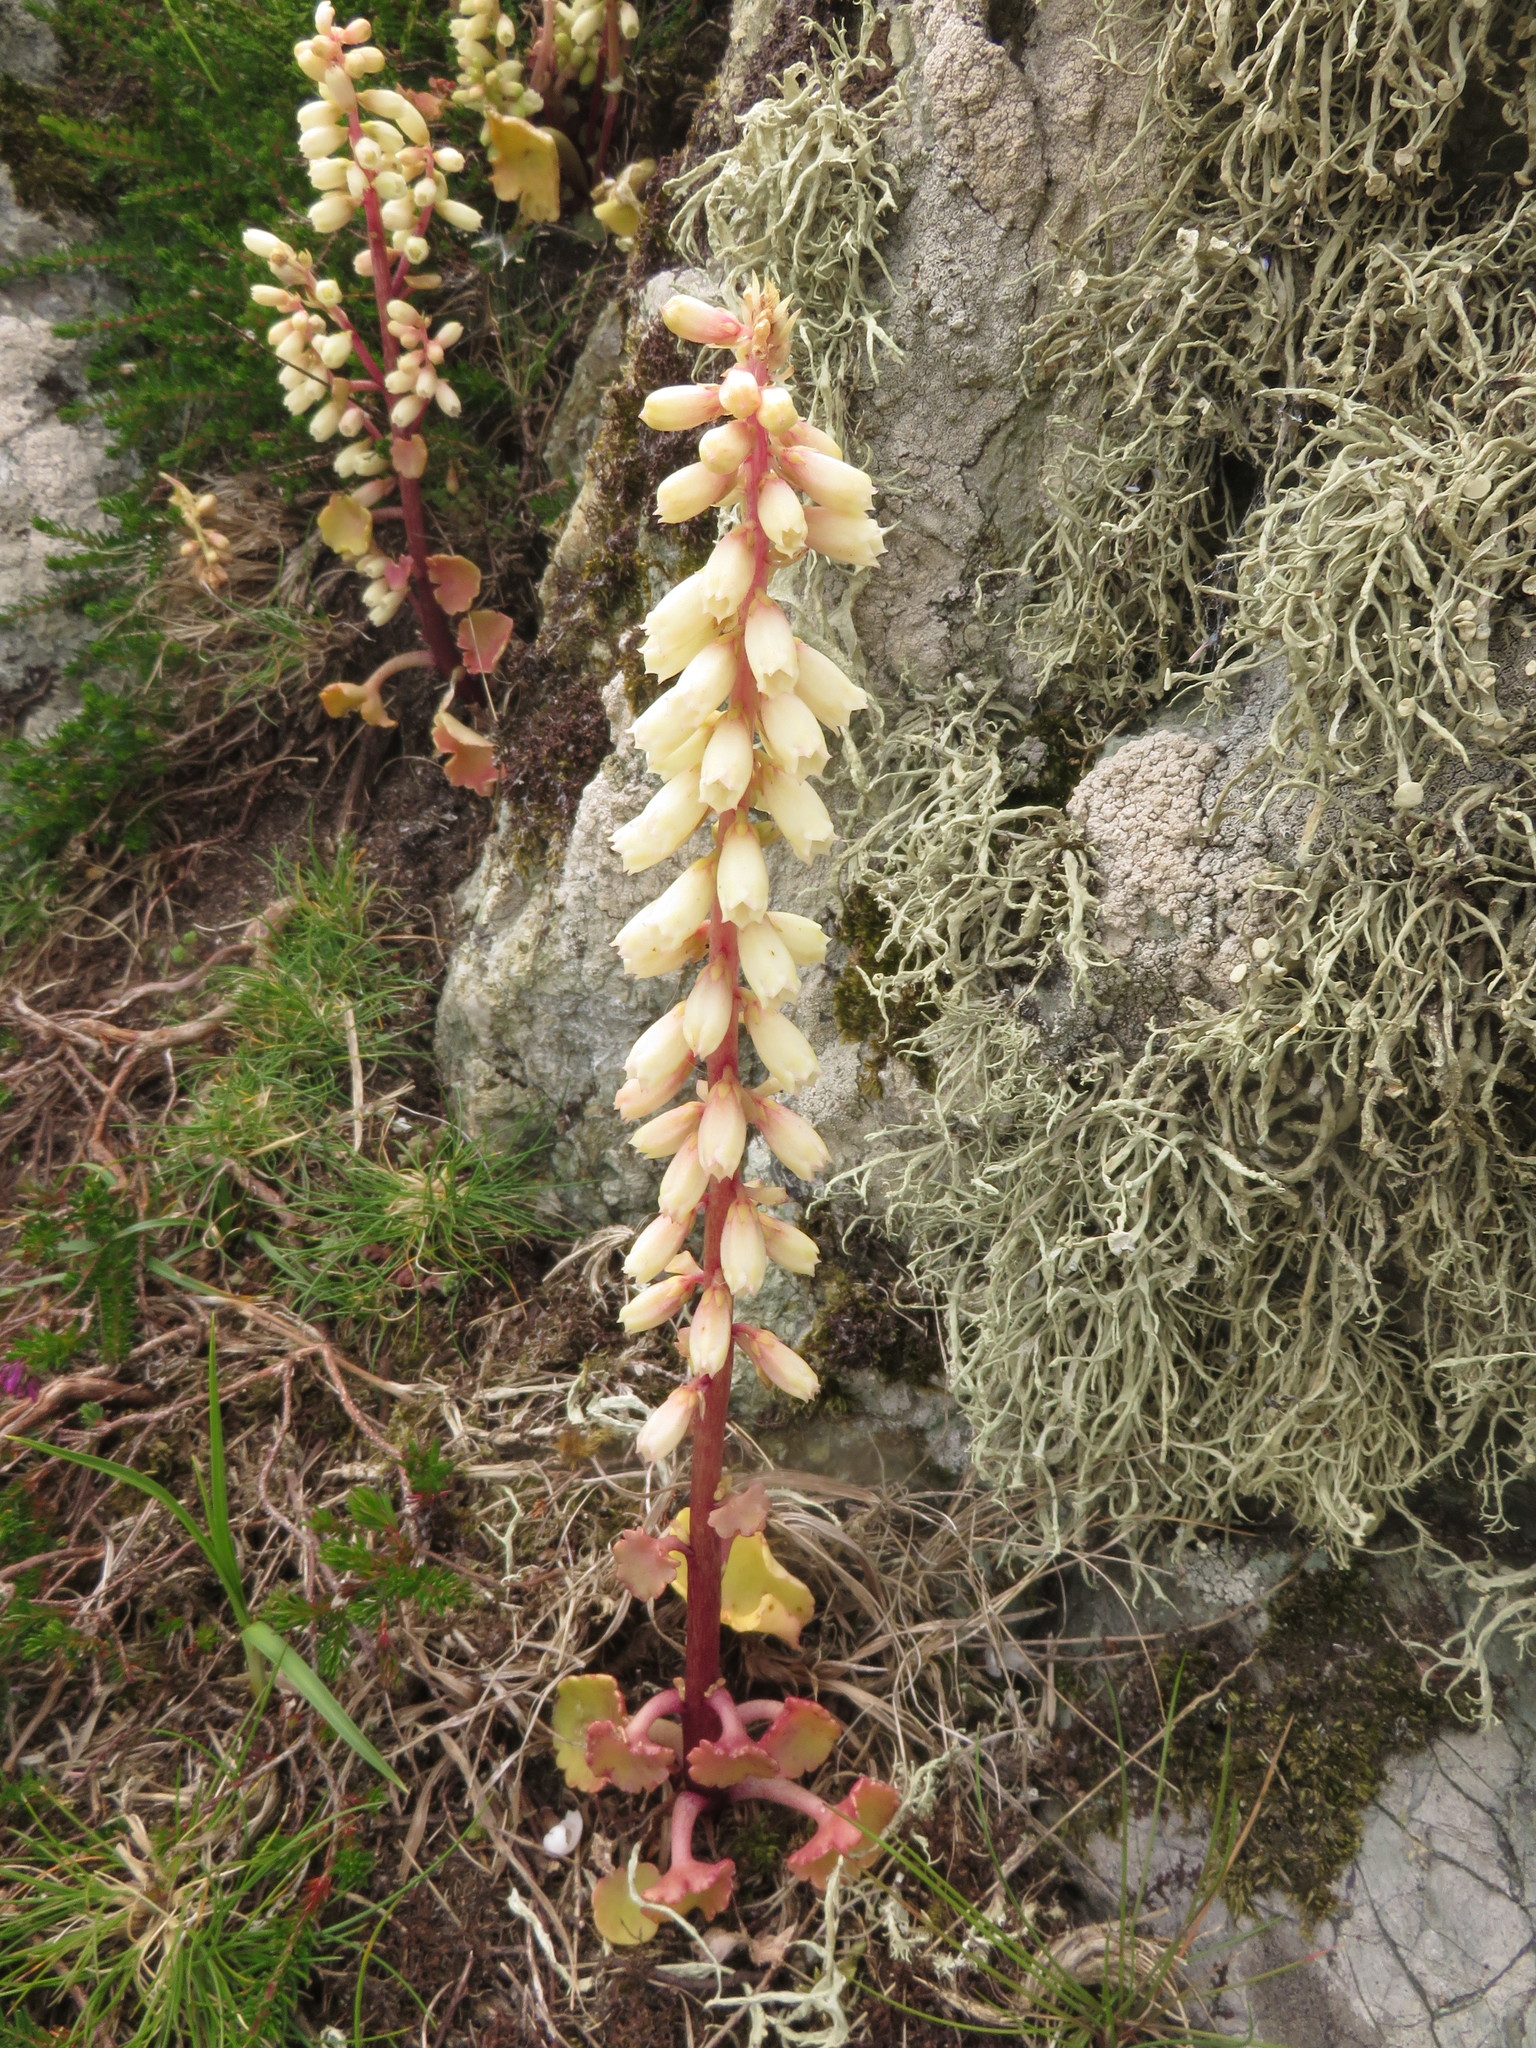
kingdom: Plantae
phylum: Tracheophyta
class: Magnoliopsida
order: Saxifragales
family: Crassulaceae
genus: Umbilicus
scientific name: Umbilicus rupestris
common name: Navelwort
